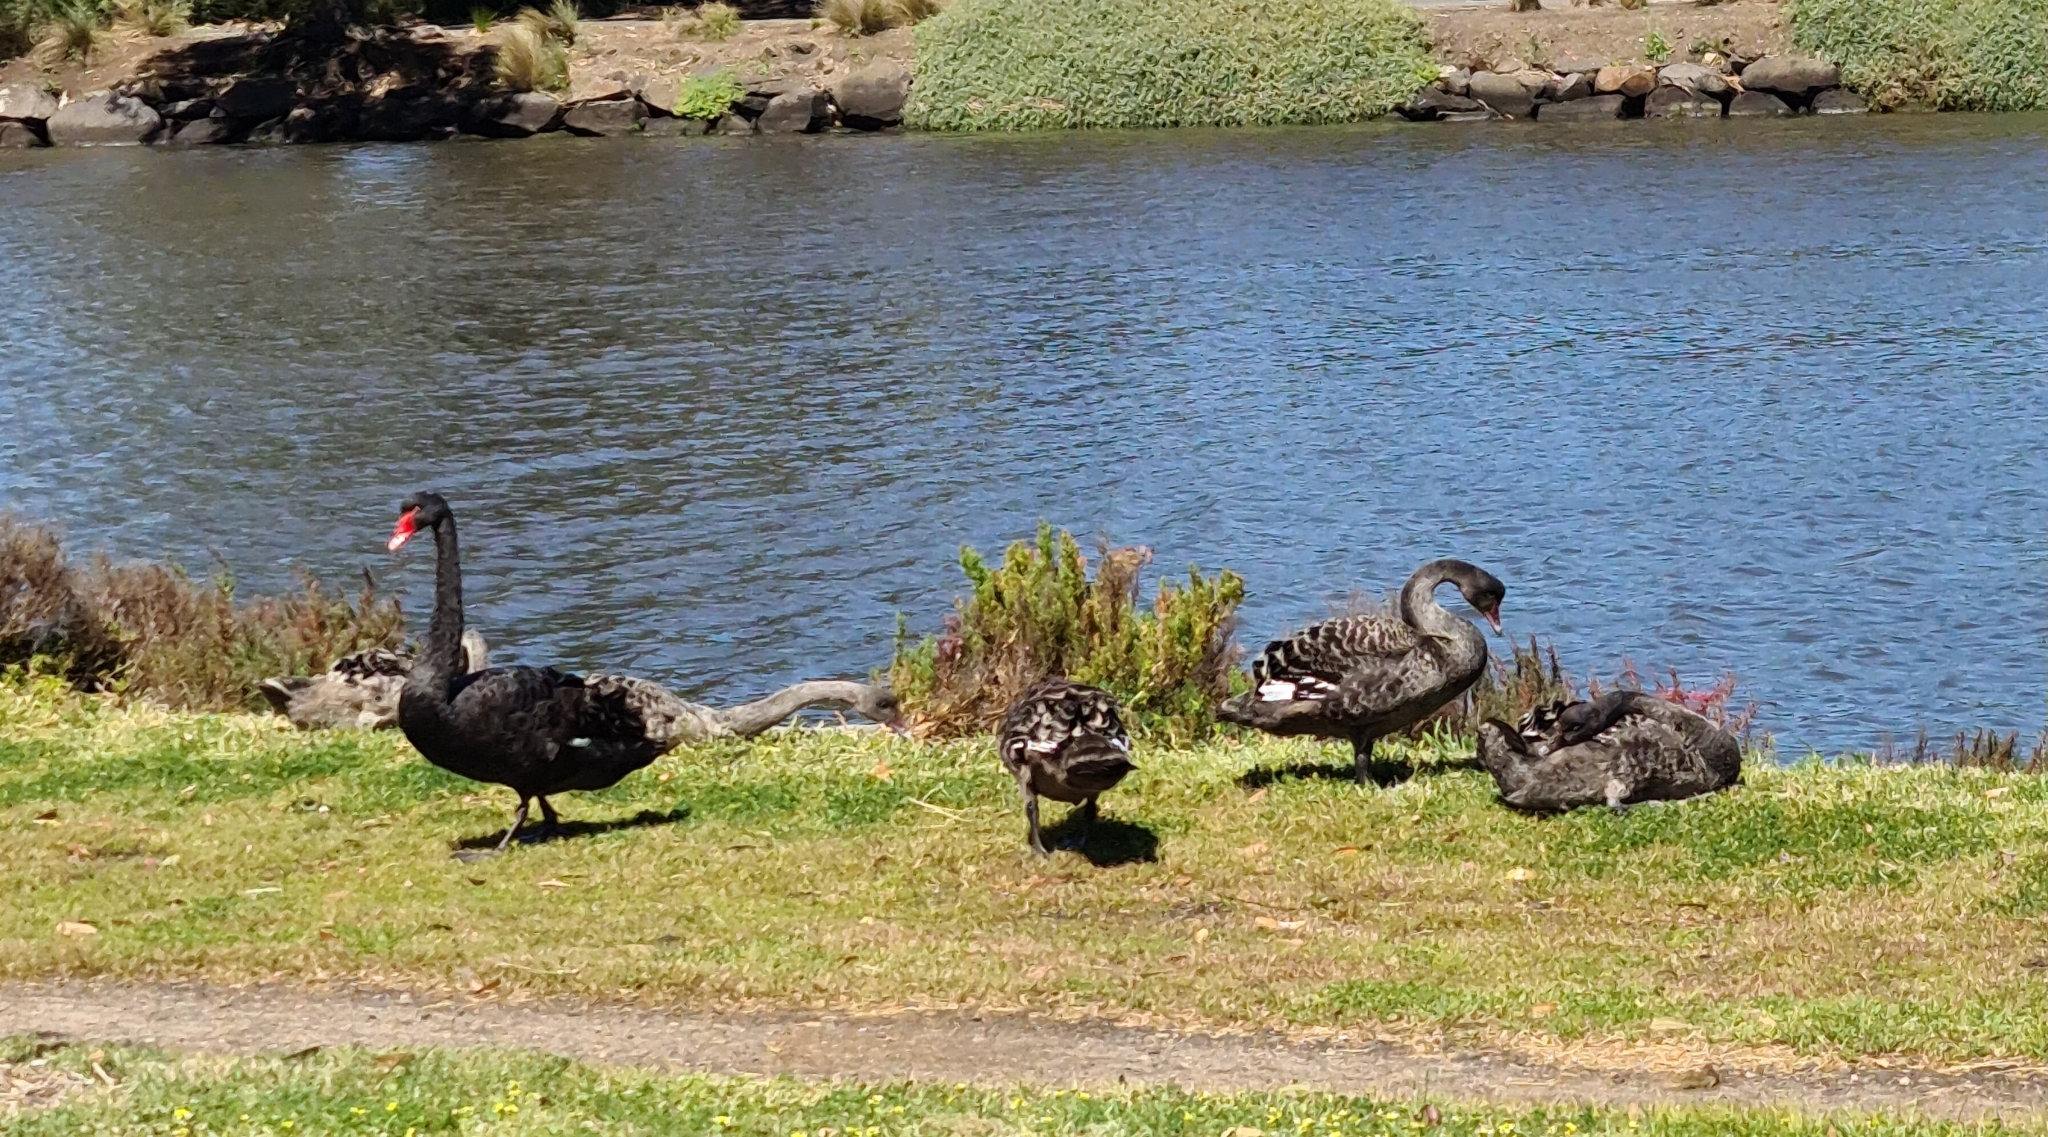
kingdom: Animalia
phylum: Chordata
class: Aves
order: Anseriformes
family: Anatidae
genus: Cygnus
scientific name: Cygnus atratus
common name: Black swan
